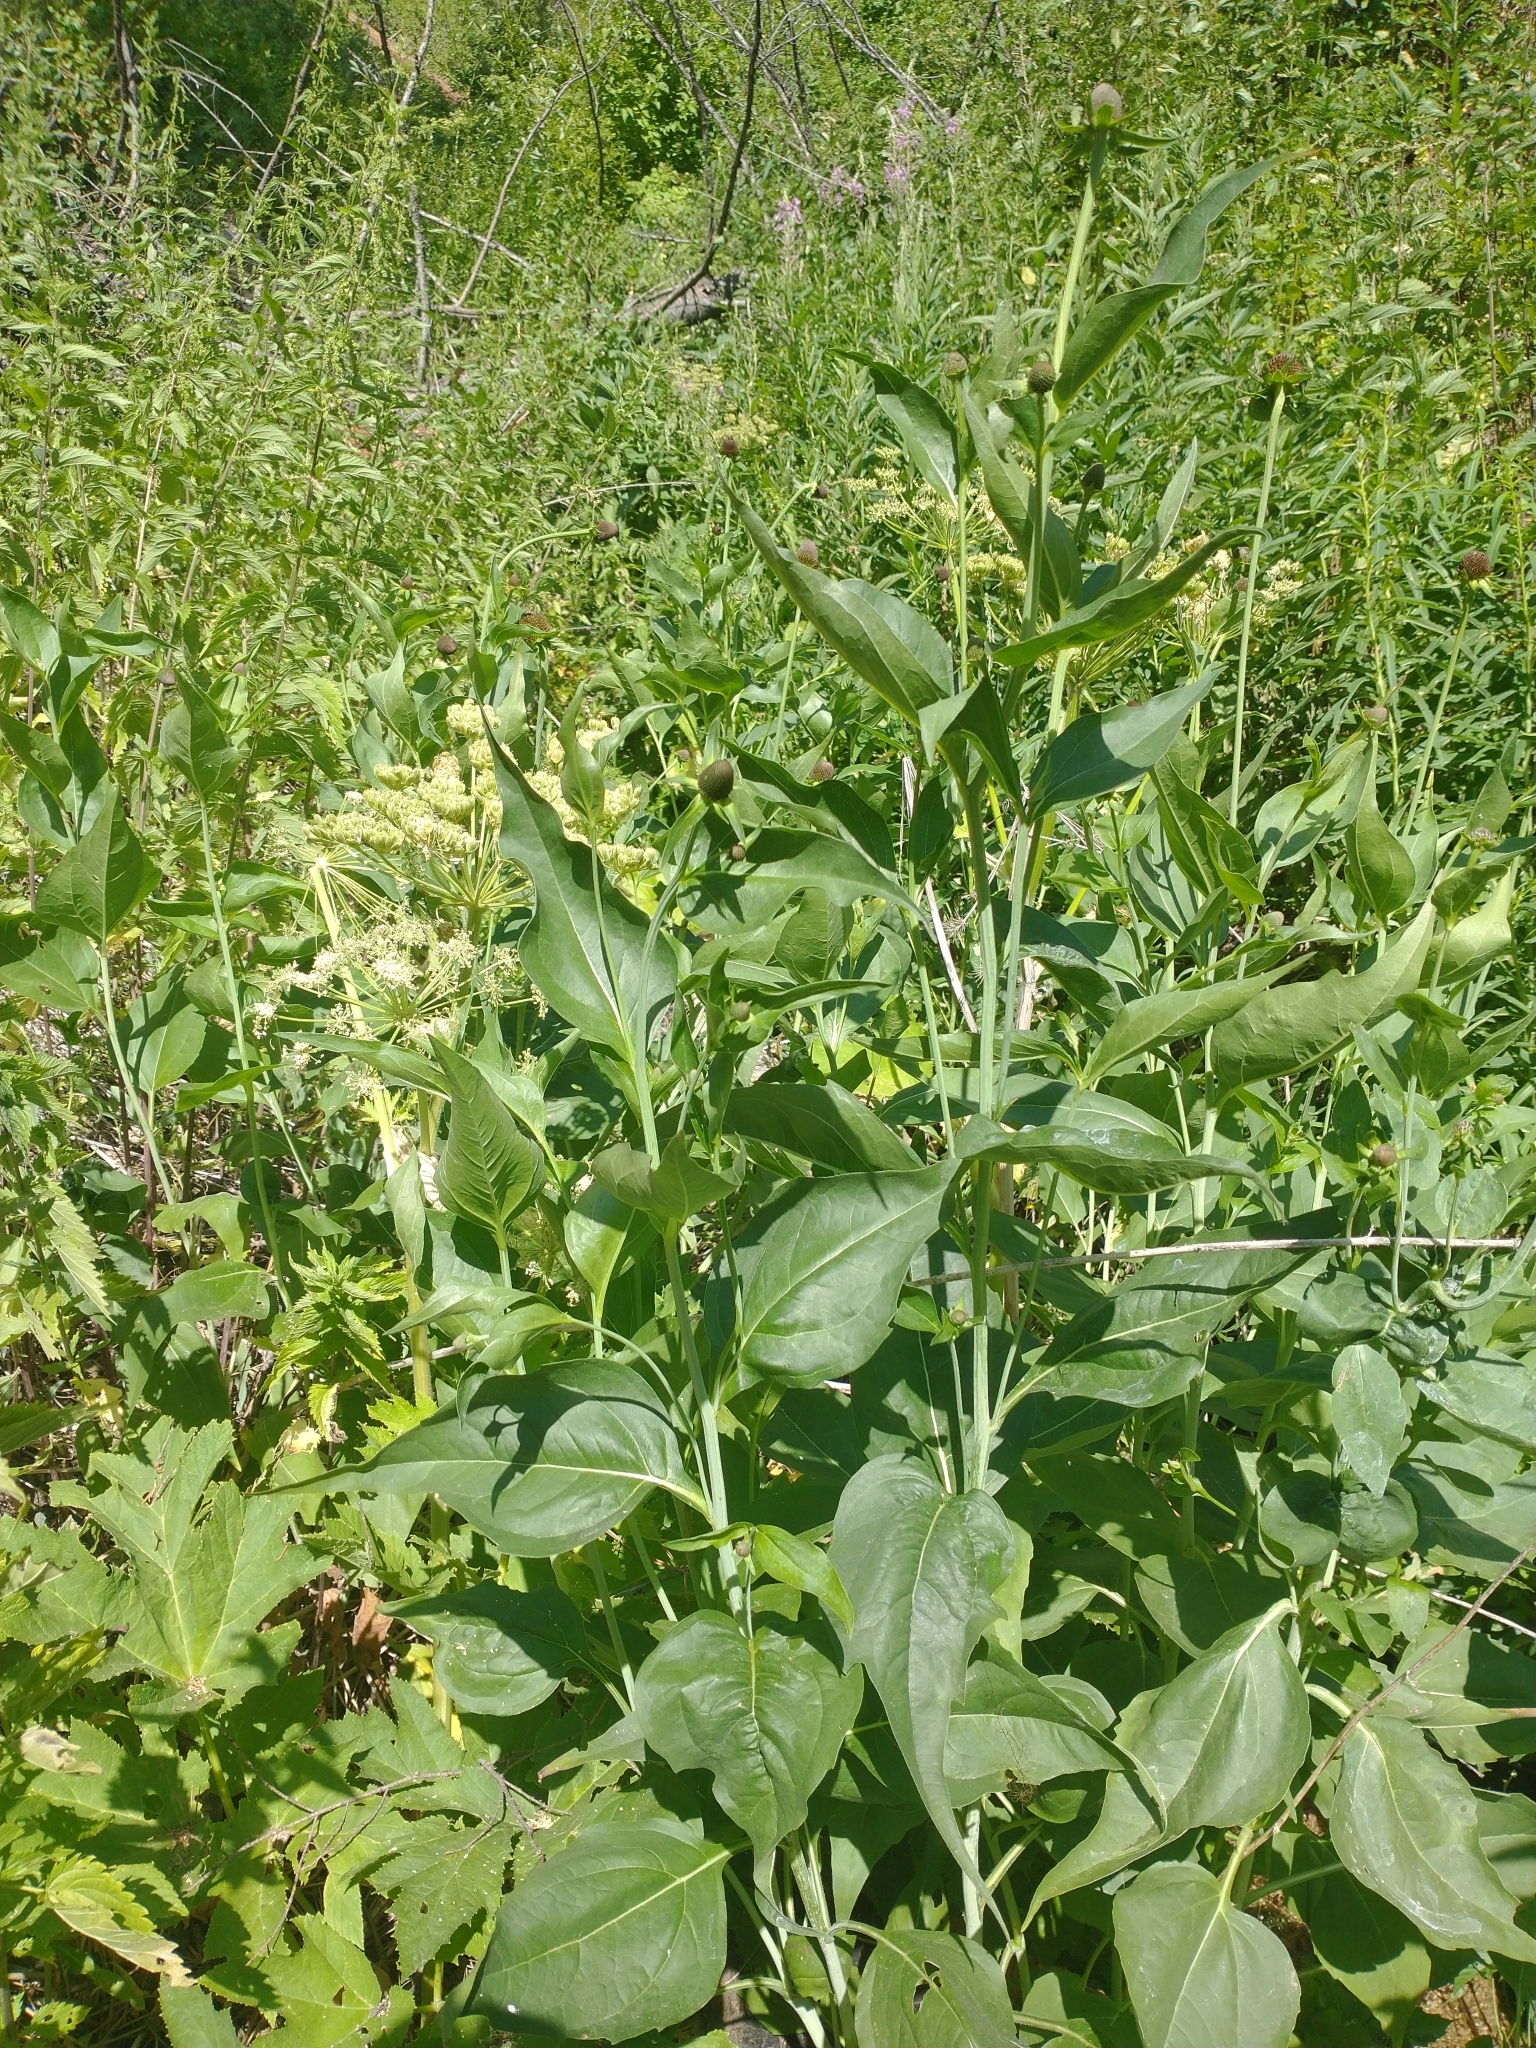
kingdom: Plantae
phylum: Tracheophyta
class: Magnoliopsida
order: Asterales
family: Asteraceae
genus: Rudbeckia
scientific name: Rudbeckia occidentalis
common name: Western coneflower
